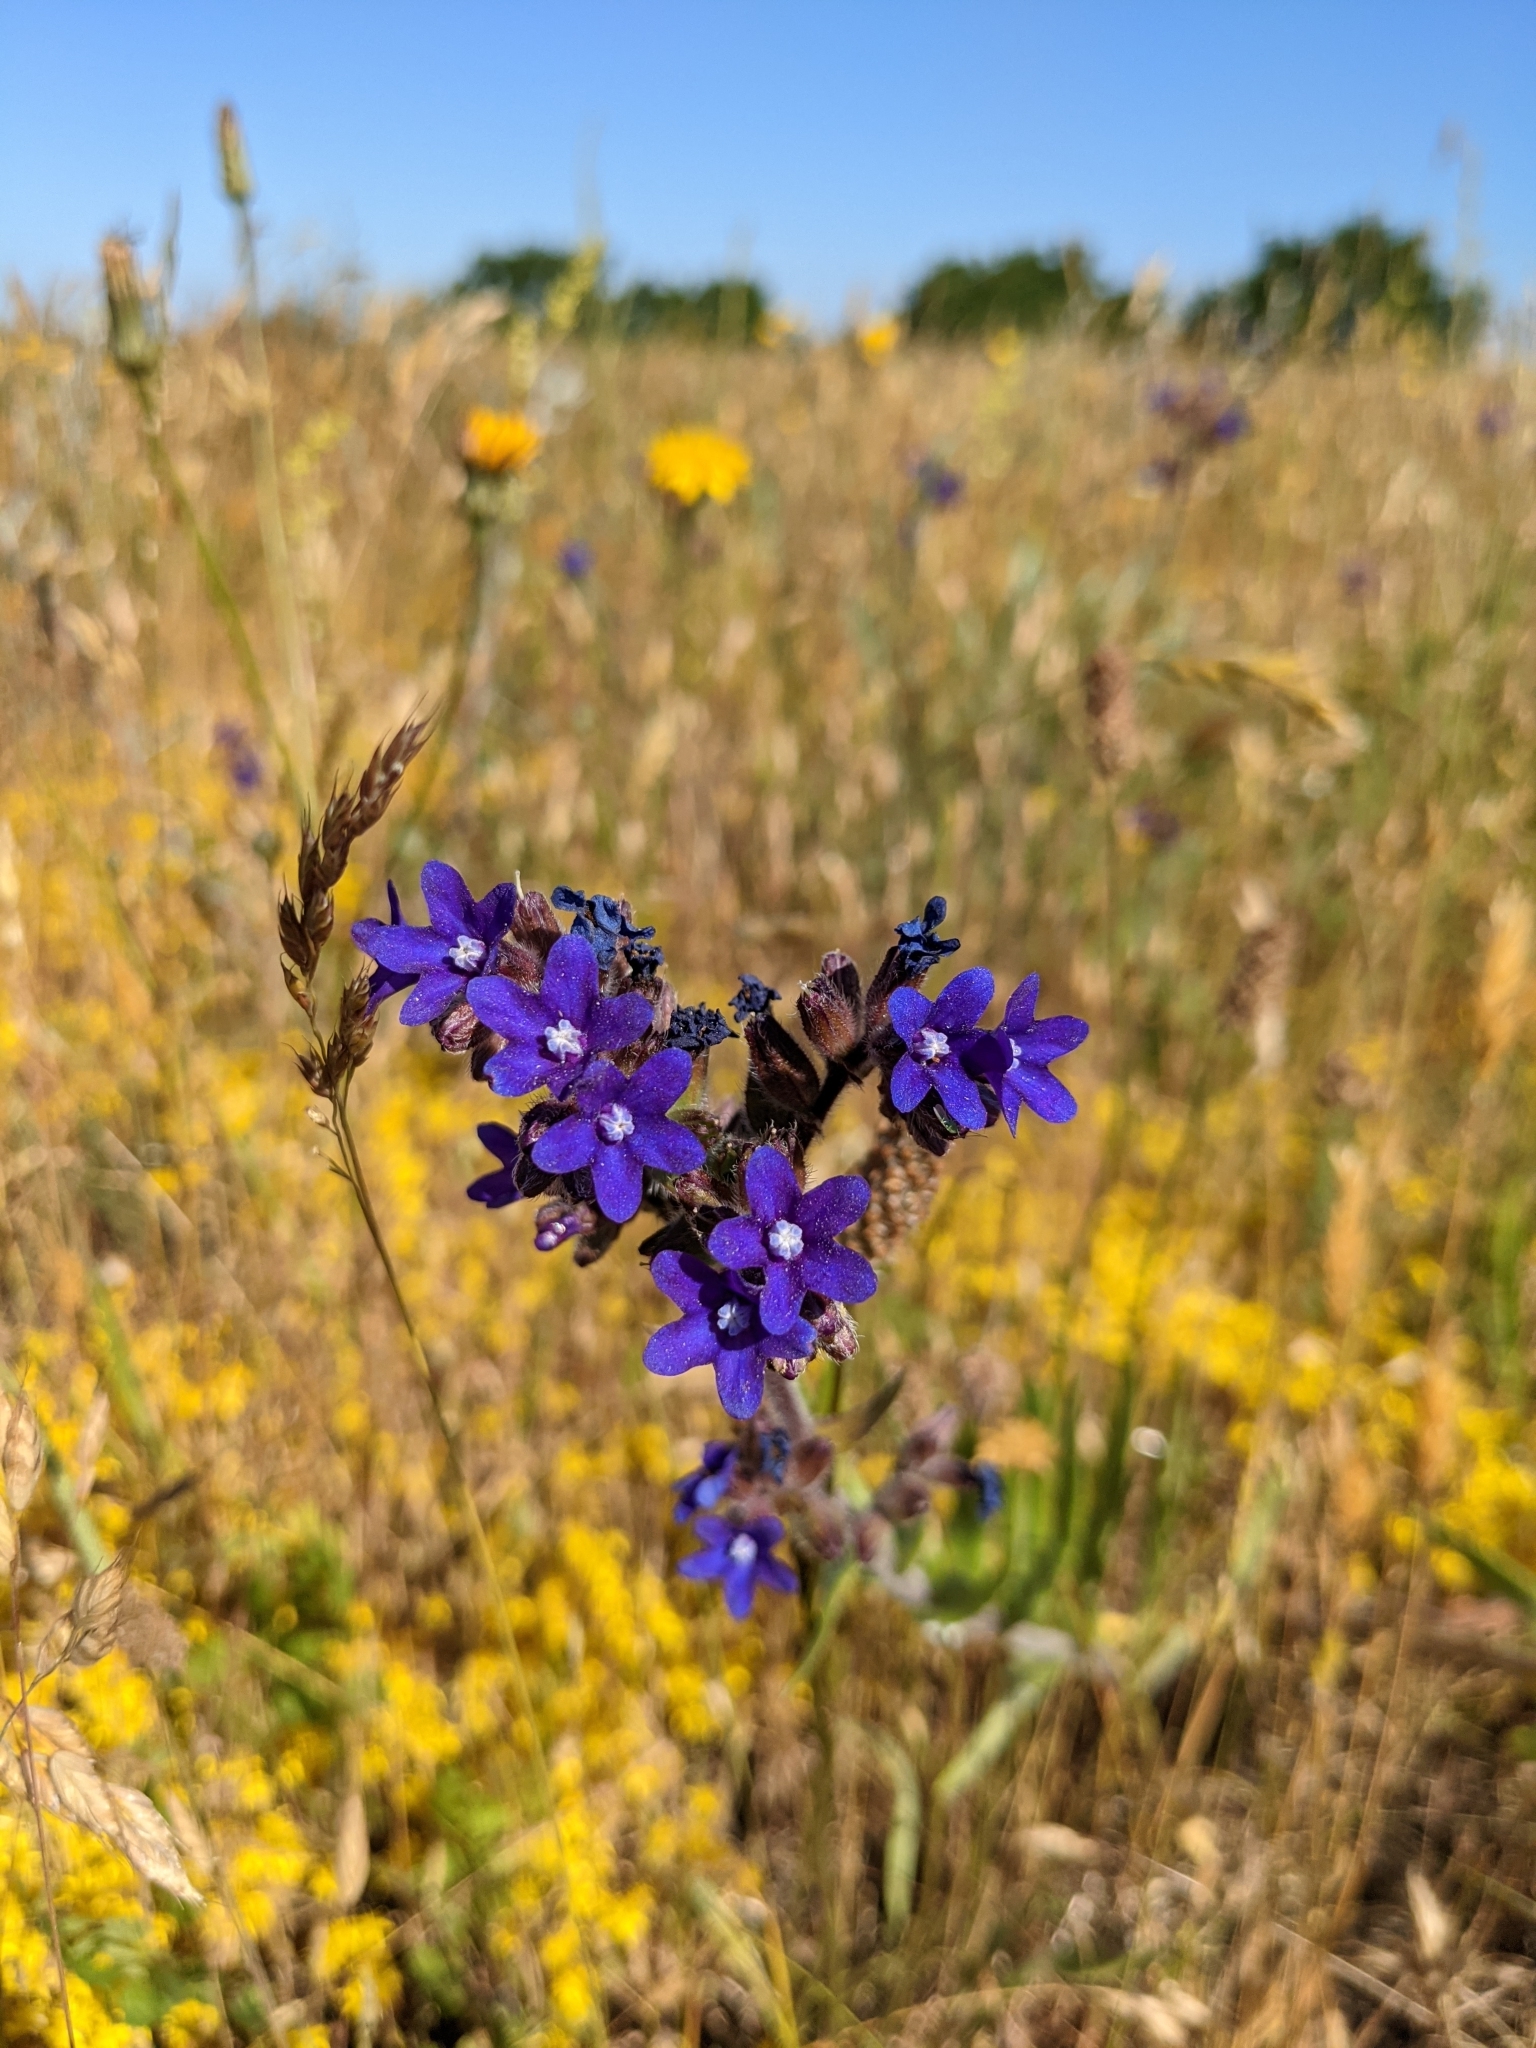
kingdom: Plantae
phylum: Tracheophyta
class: Magnoliopsida
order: Boraginales
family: Boraginaceae
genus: Anchusa
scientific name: Anchusa officinalis
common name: Alkanet
